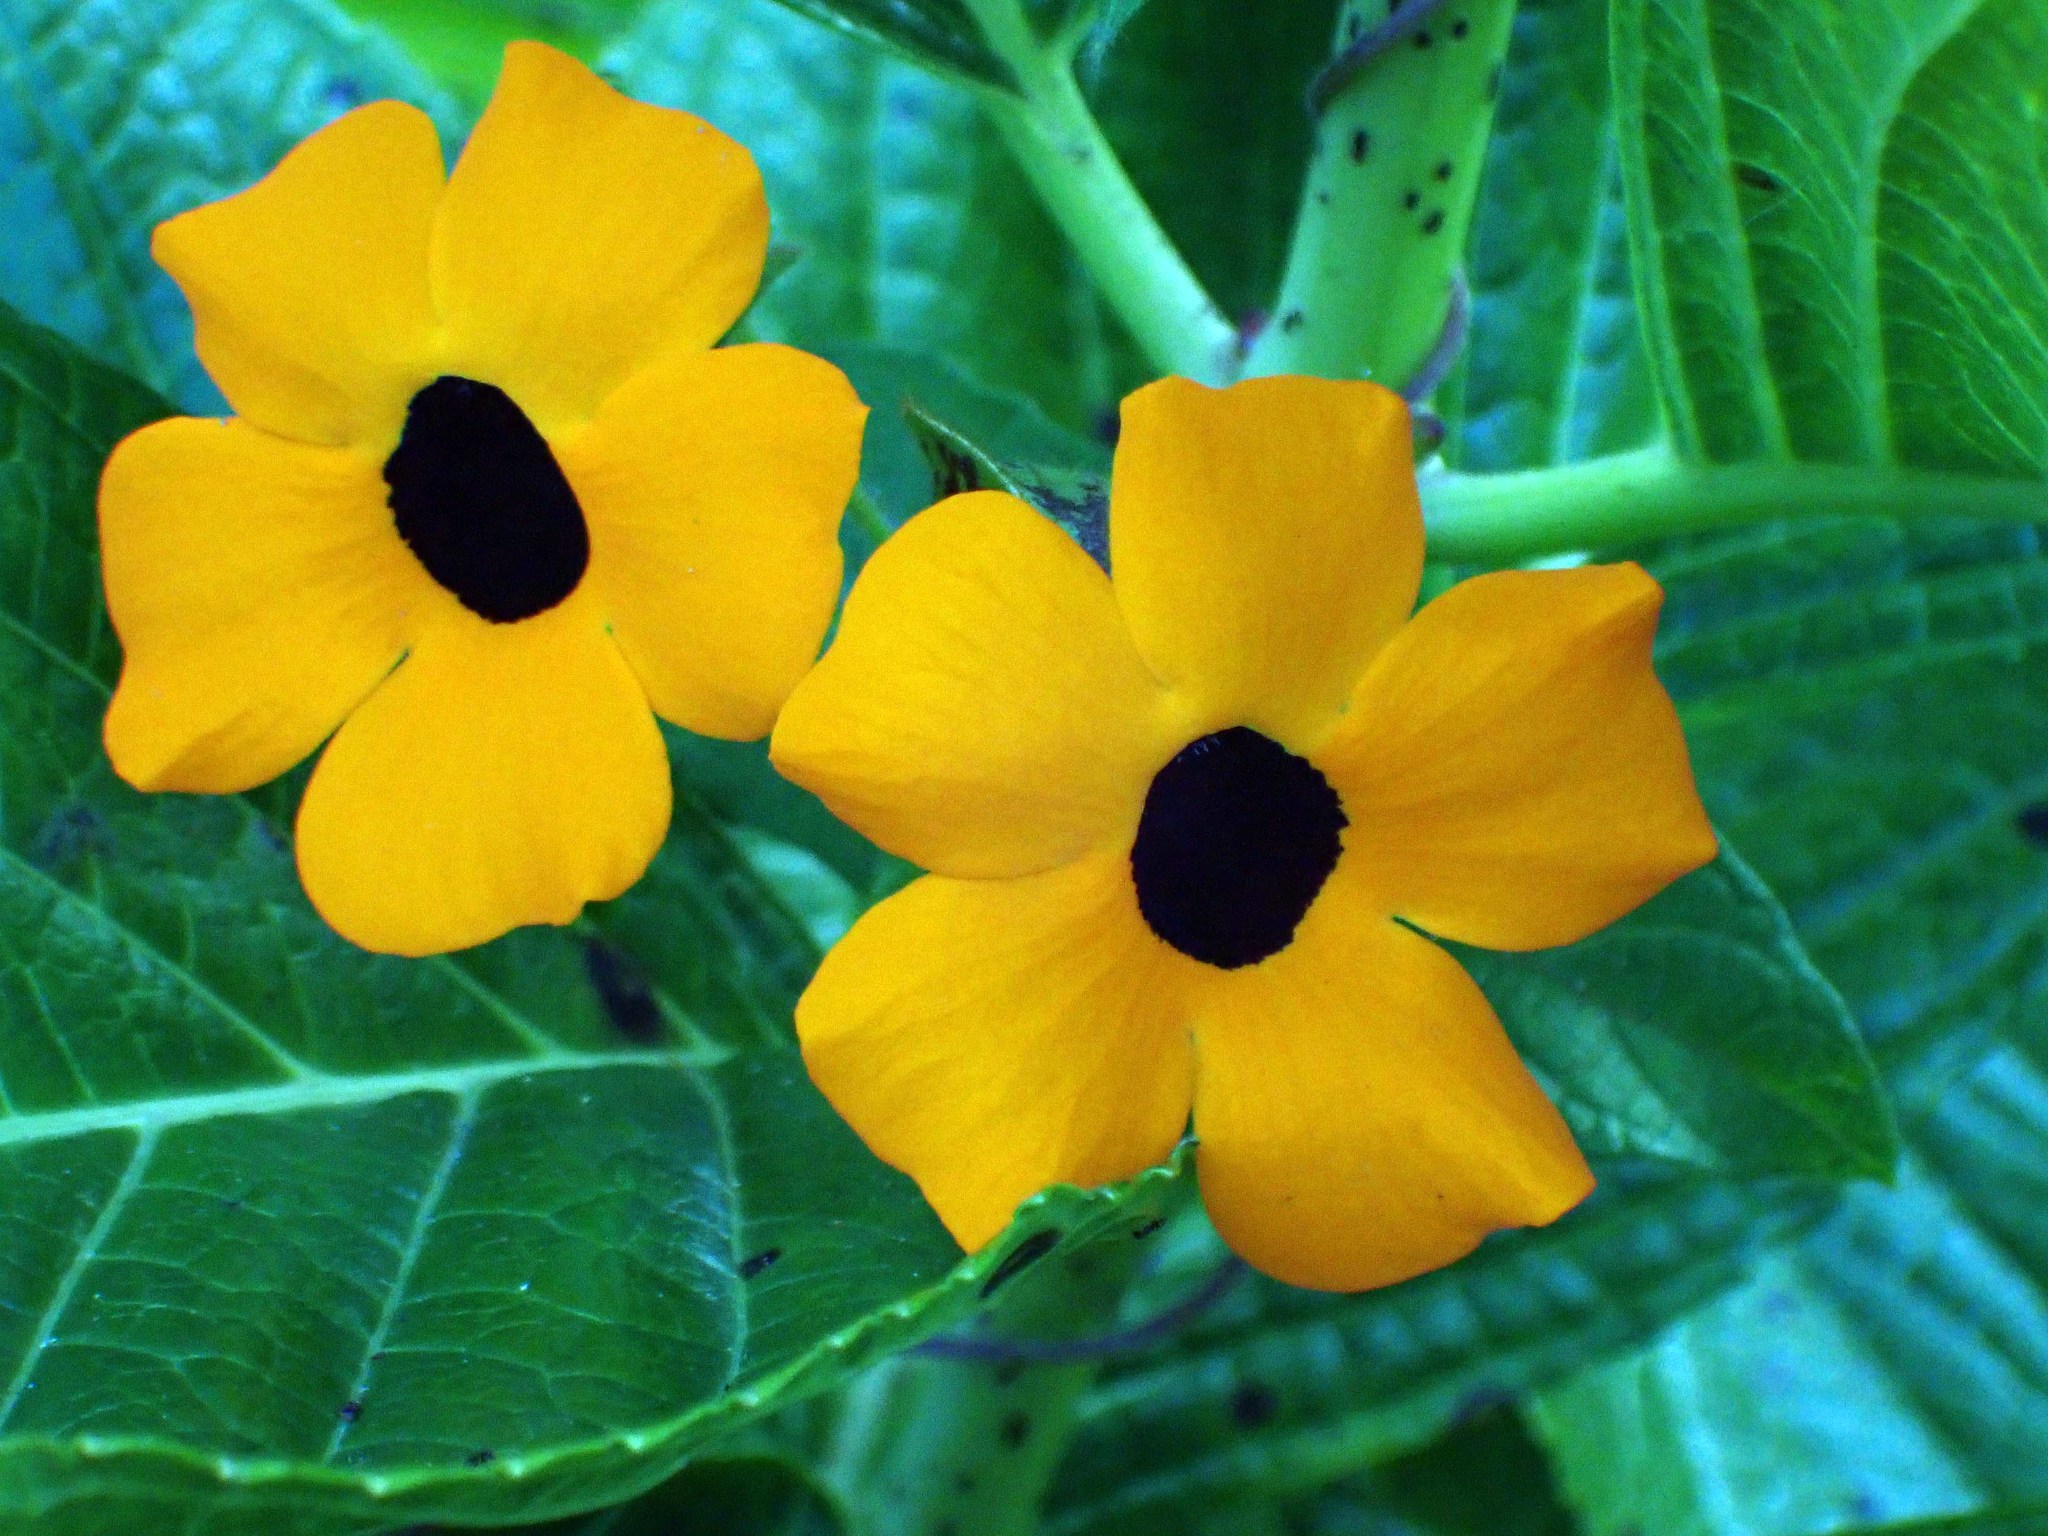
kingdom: Plantae
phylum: Tracheophyta
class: Magnoliopsida
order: Lamiales
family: Acanthaceae
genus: Thunbergia
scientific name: Thunbergia alata
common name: Blackeyed susan vine
